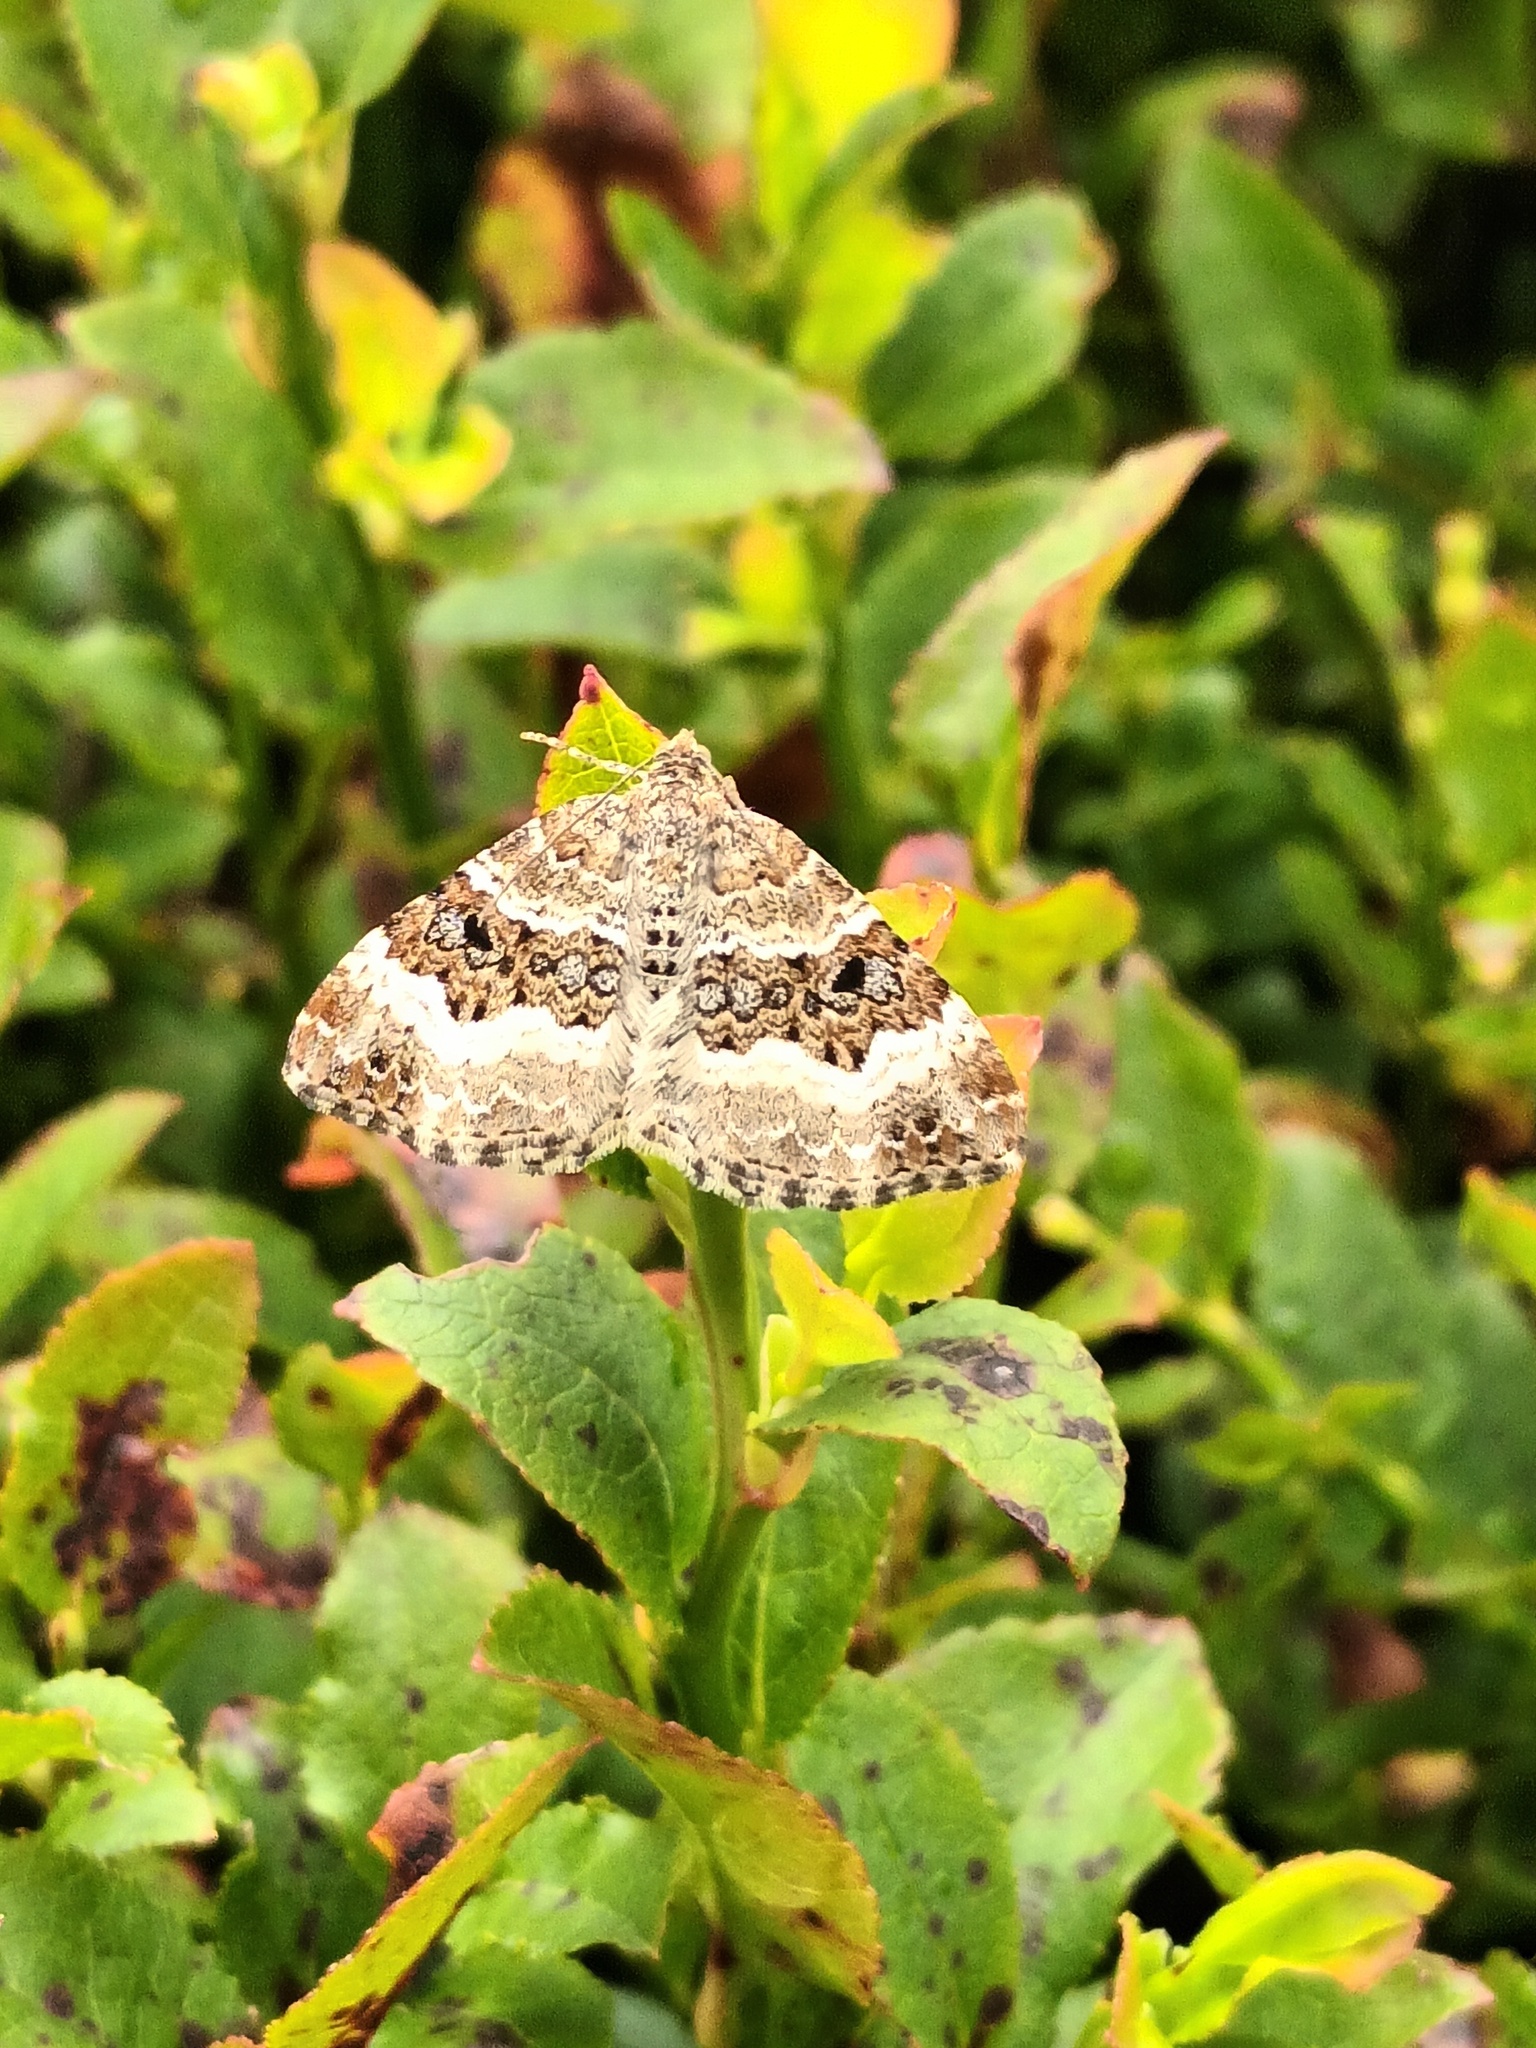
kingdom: Animalia
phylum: Arthropoda
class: Insecta
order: Lepidoptera
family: Geometridae
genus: Epirrhoe
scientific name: Epirrhoe alternata
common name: Common carpet
